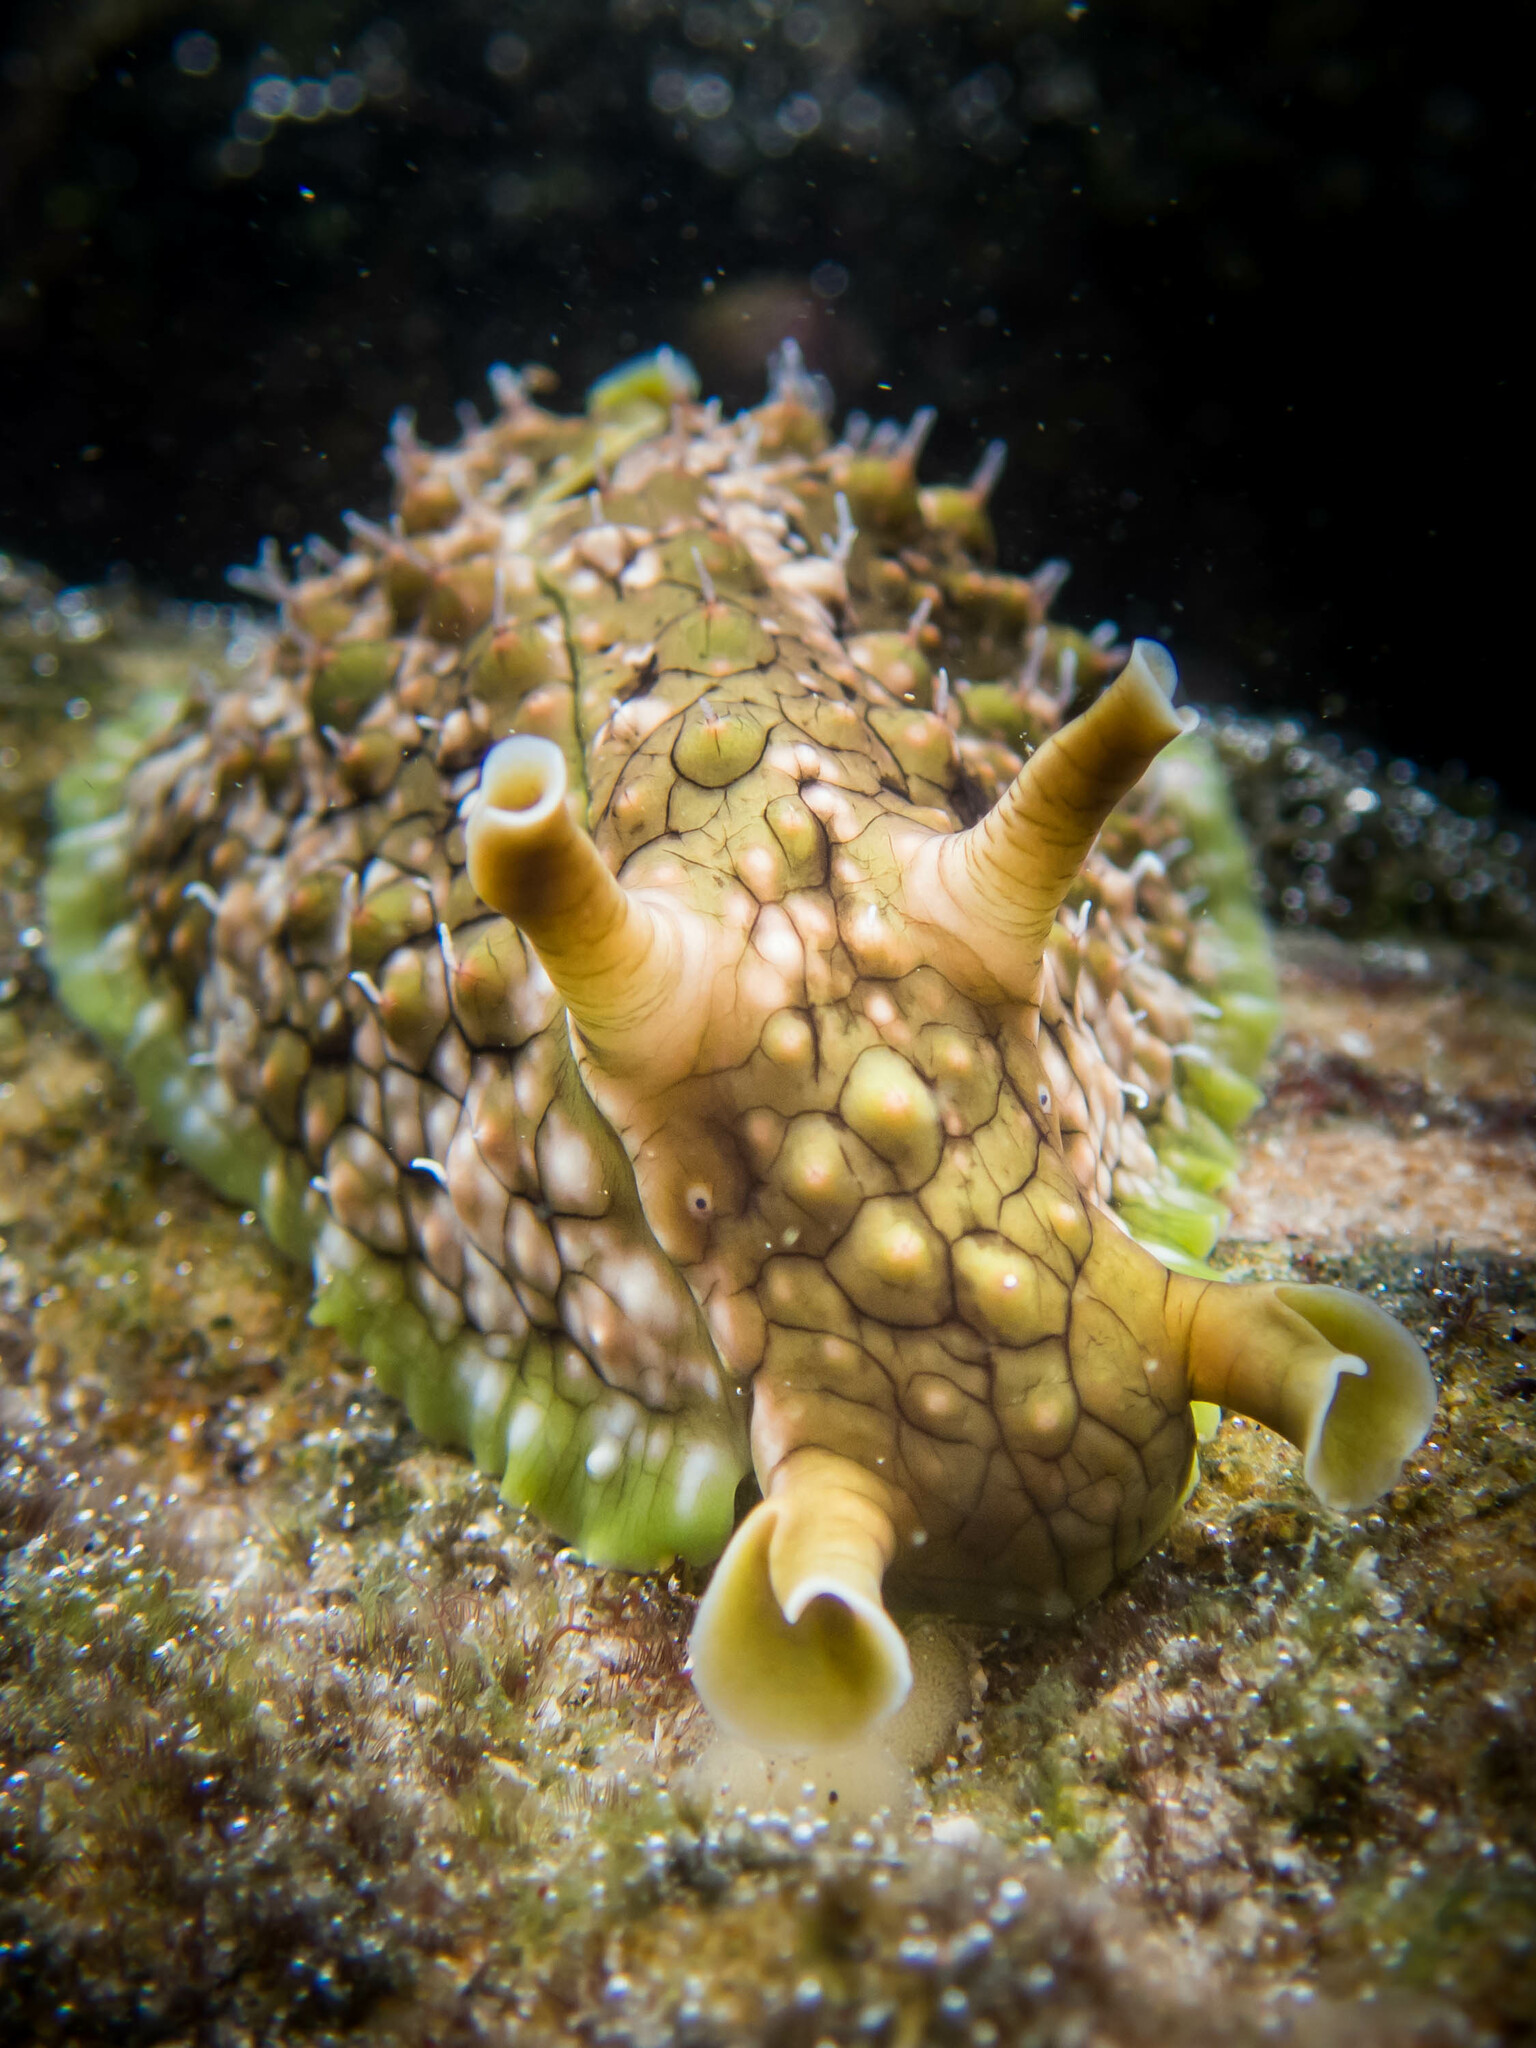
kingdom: Animalia
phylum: Mollusca
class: Gastropoda
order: Aplysiida
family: Aplysiidae
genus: Dolabrifera
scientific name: Dolabrifera brazieri
